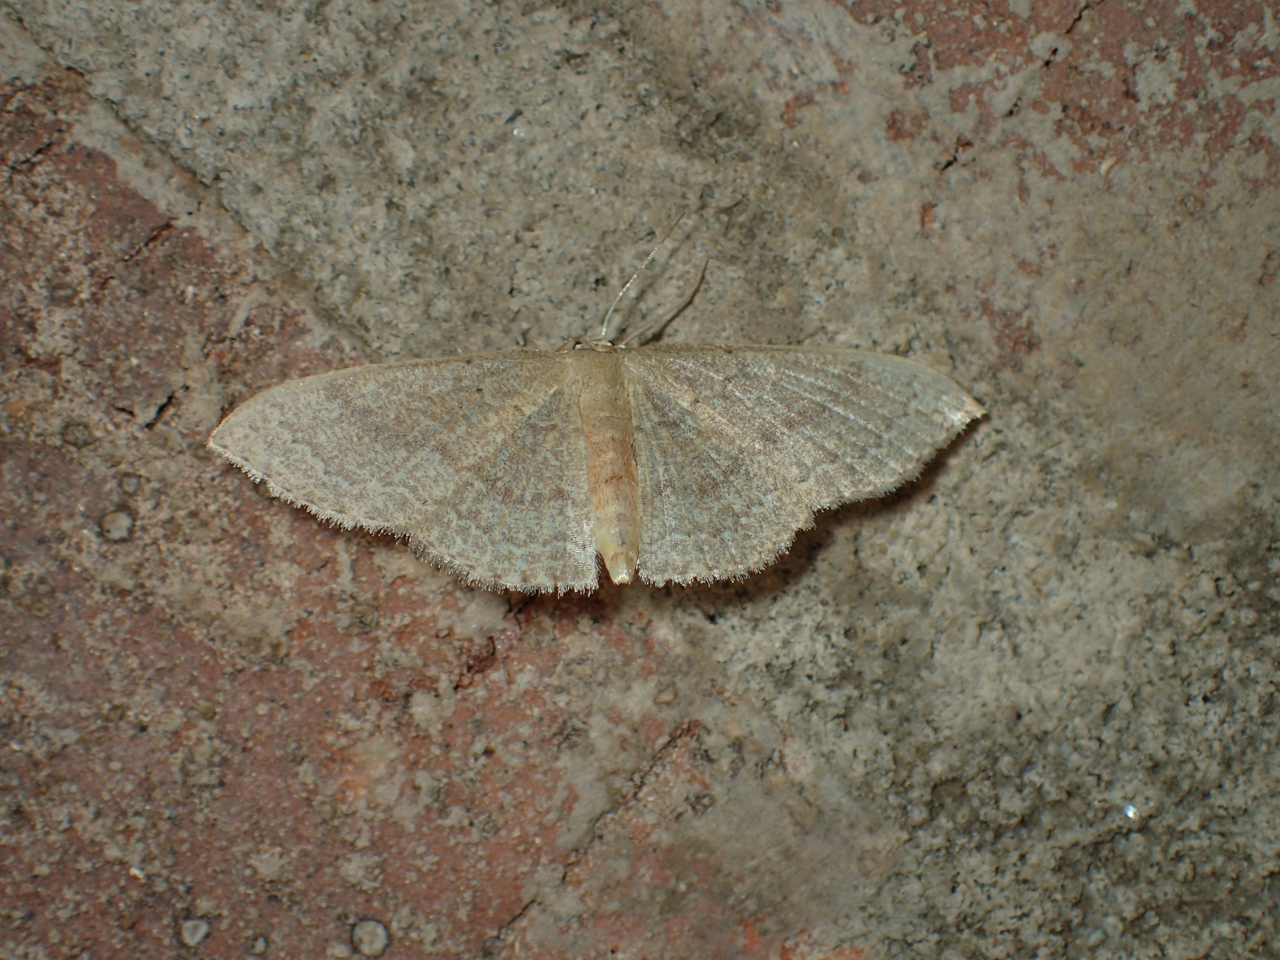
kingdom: Animalia
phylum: Arthropoda
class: Insecta
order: Lepidoptera
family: Geometridae
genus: Pleuroprucha
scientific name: Pleuroprucha insulsaria
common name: Common tan wave
